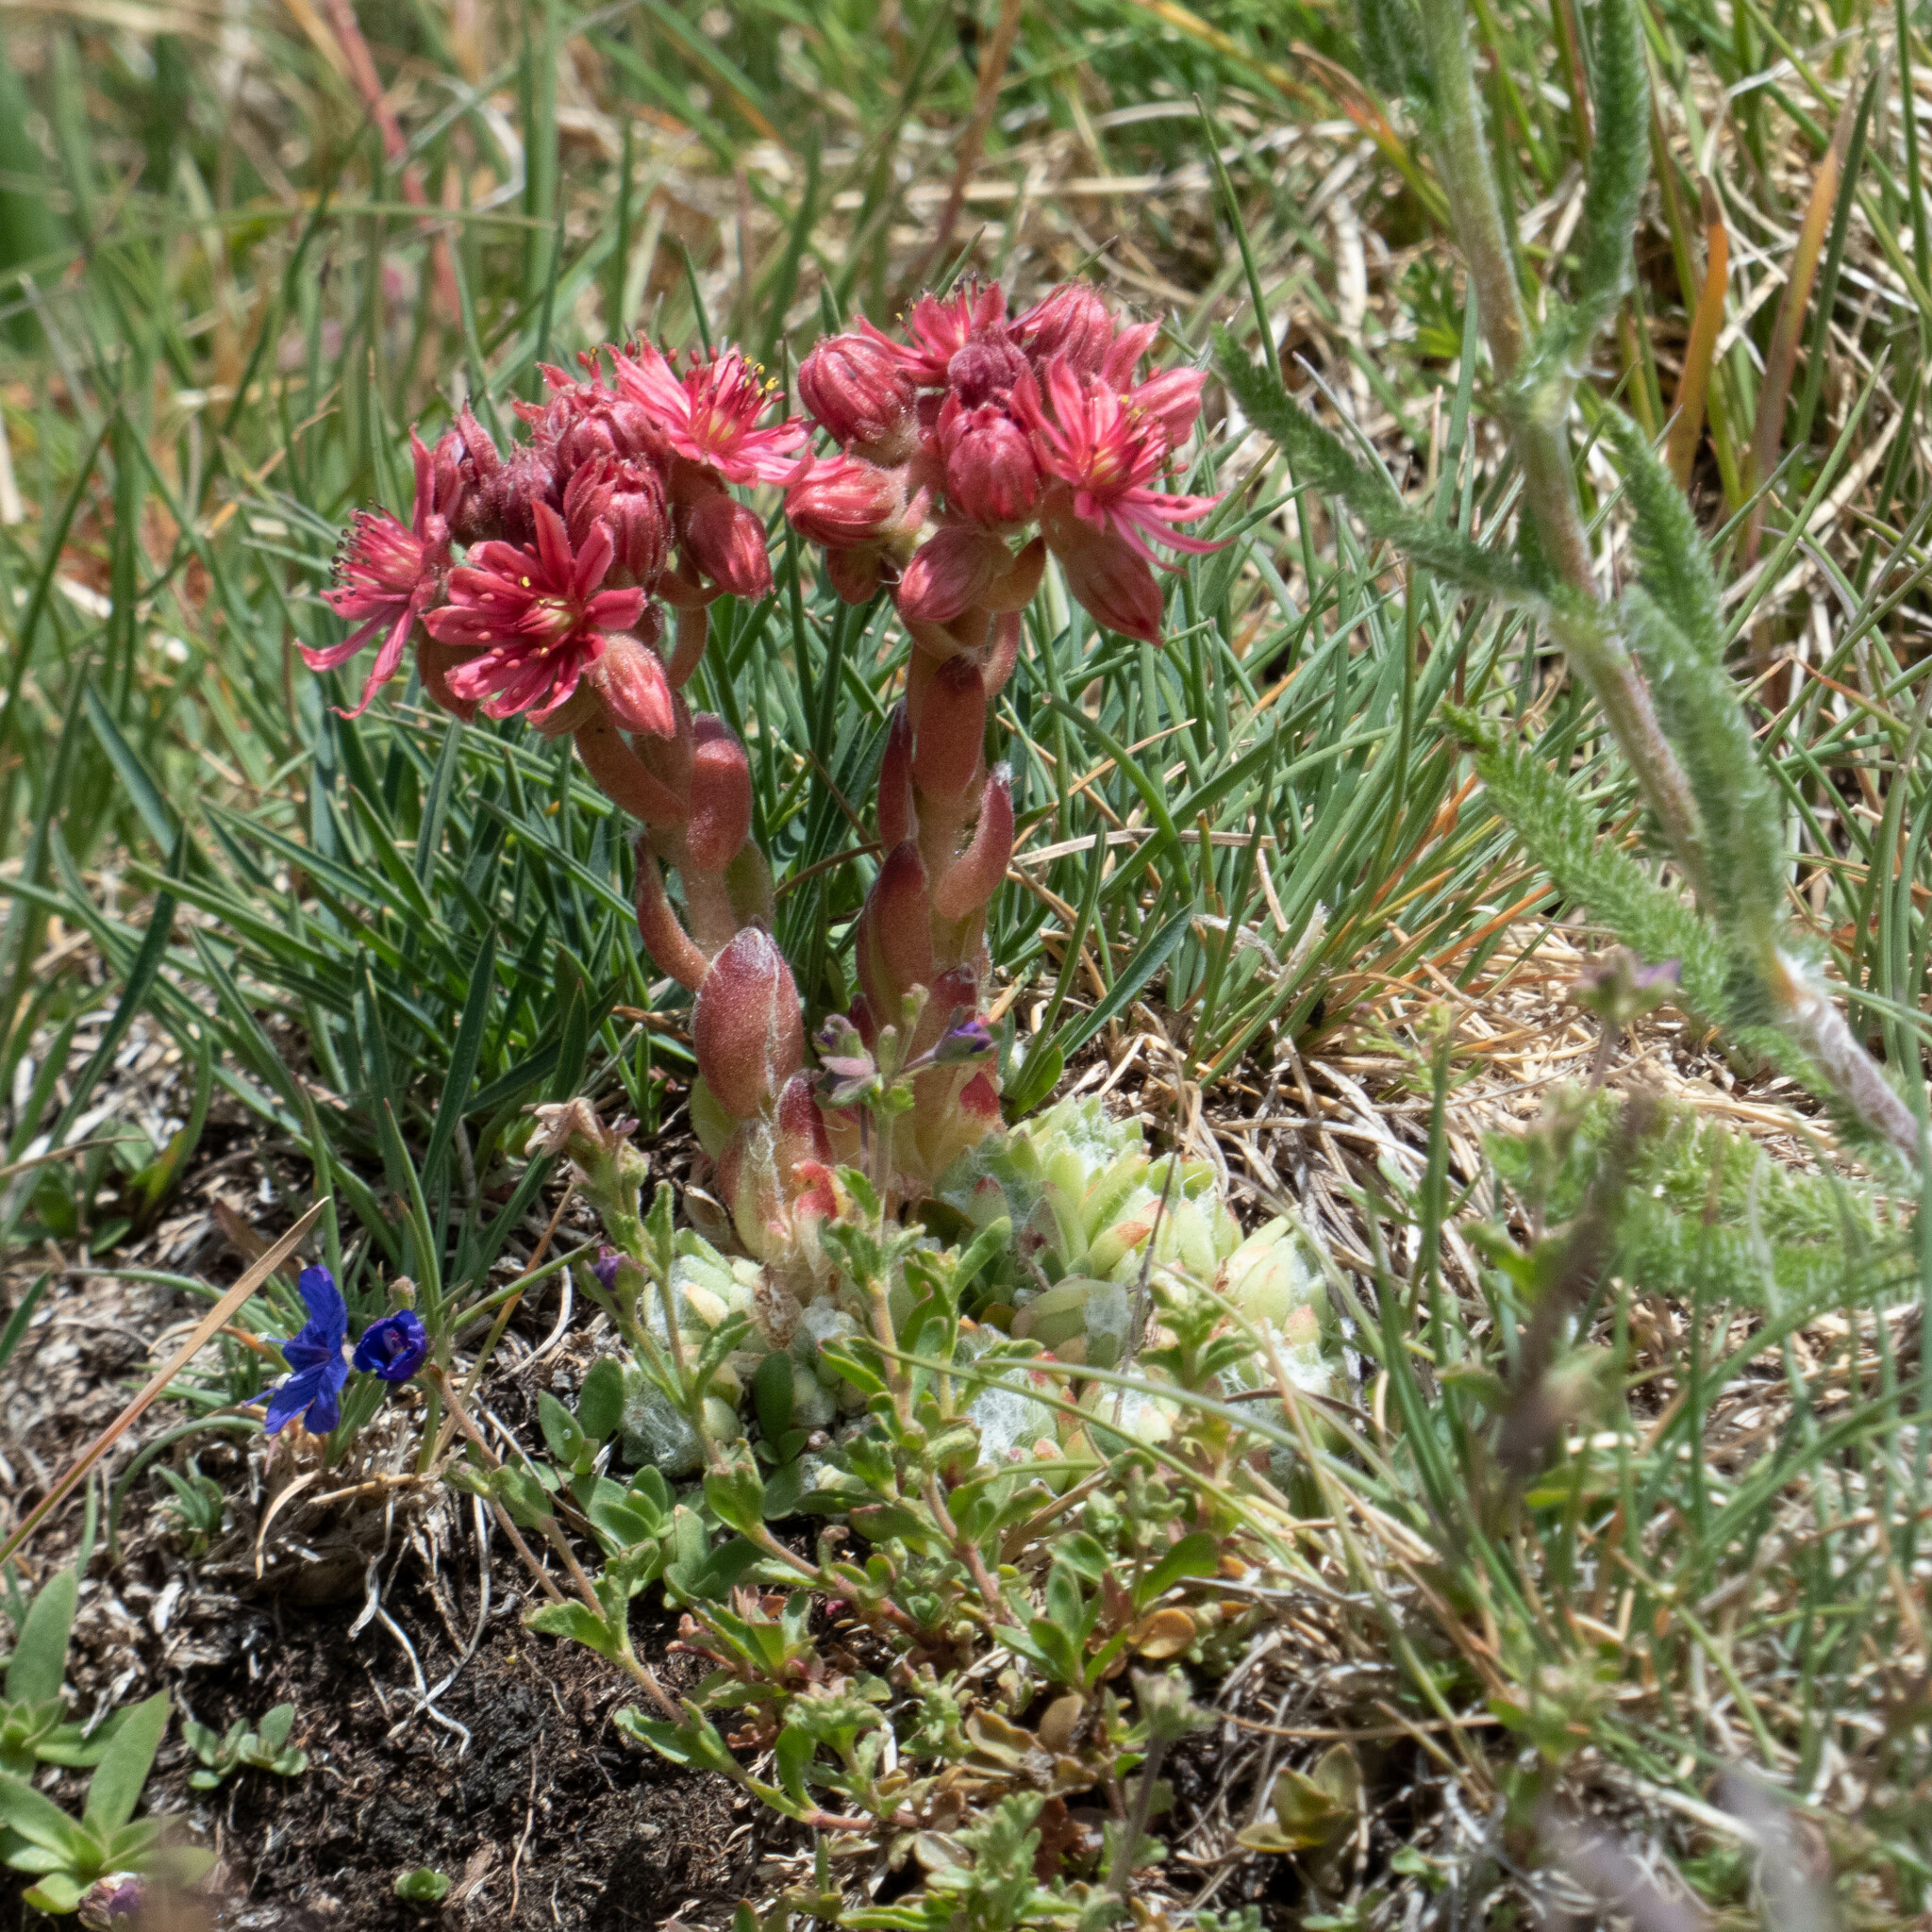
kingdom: Plantae
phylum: Tracheophyta
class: Magnoliopsida
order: Saxifragales
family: Crassulaceae
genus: Sempervivum
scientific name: Sempervivum arachnoideum
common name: Cobweb house-leek
